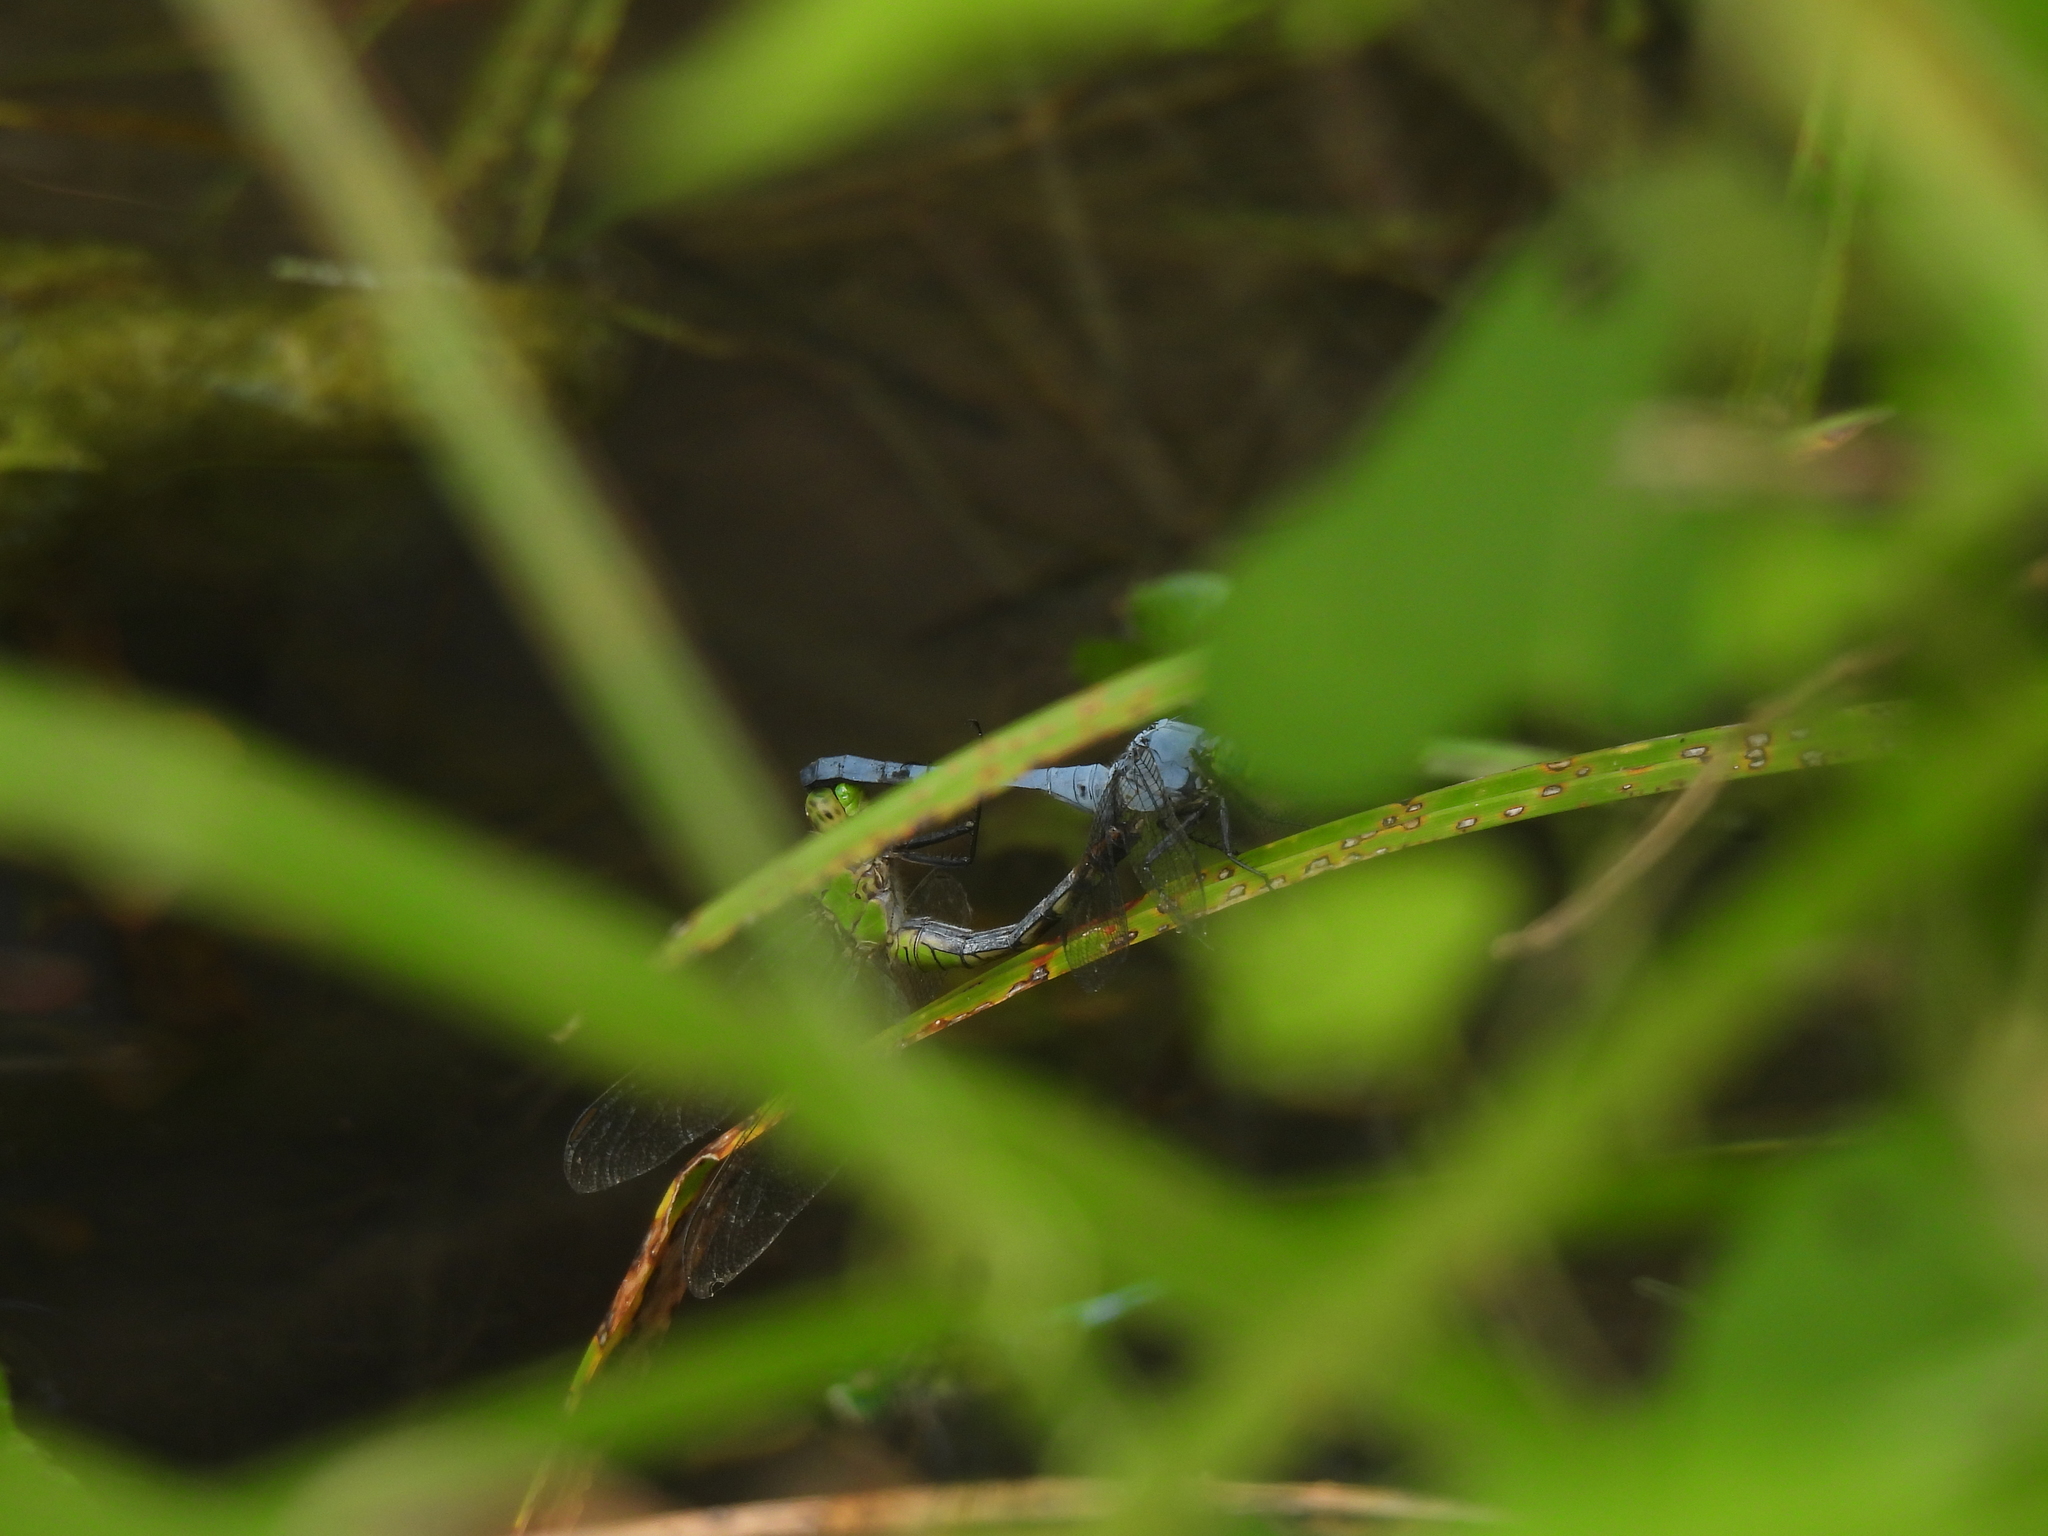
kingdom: Animalia
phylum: Arthropoda
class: Insecta
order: Odonata
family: Libellulidae
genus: Erythemis
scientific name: Erythemis simplicicollis
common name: Eastern pondhawk
